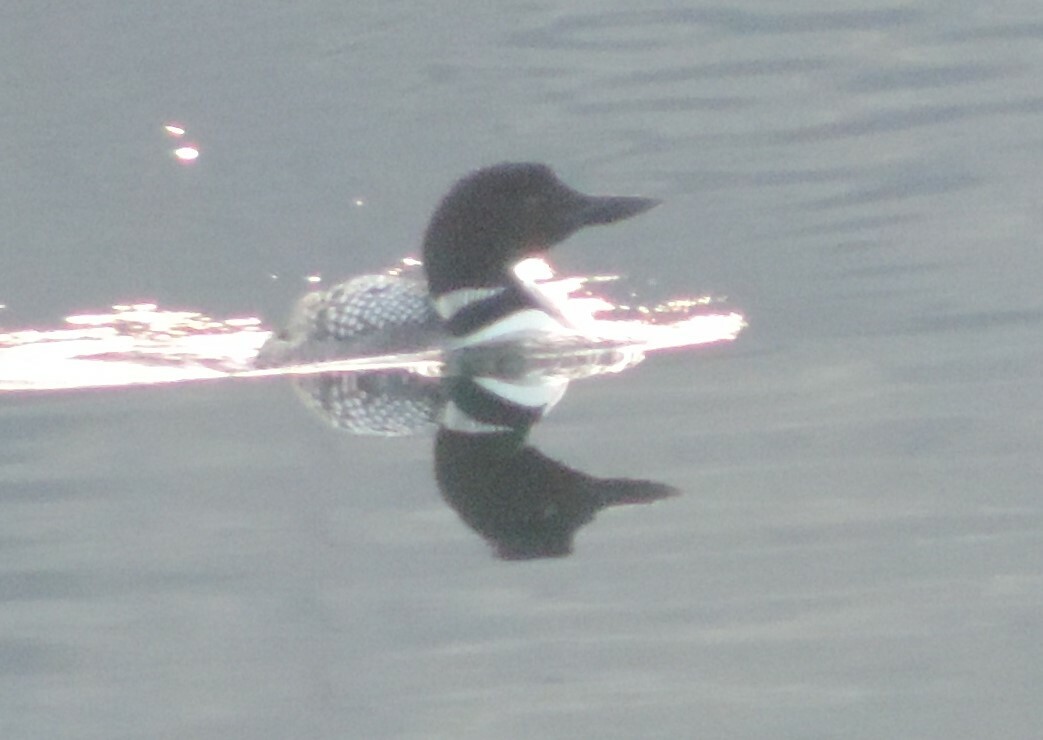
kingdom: Animalia
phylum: Chordata
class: Aves
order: Gaviiformes
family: Gaviidae
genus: Gavia
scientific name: Gavia immer
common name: Common loon
